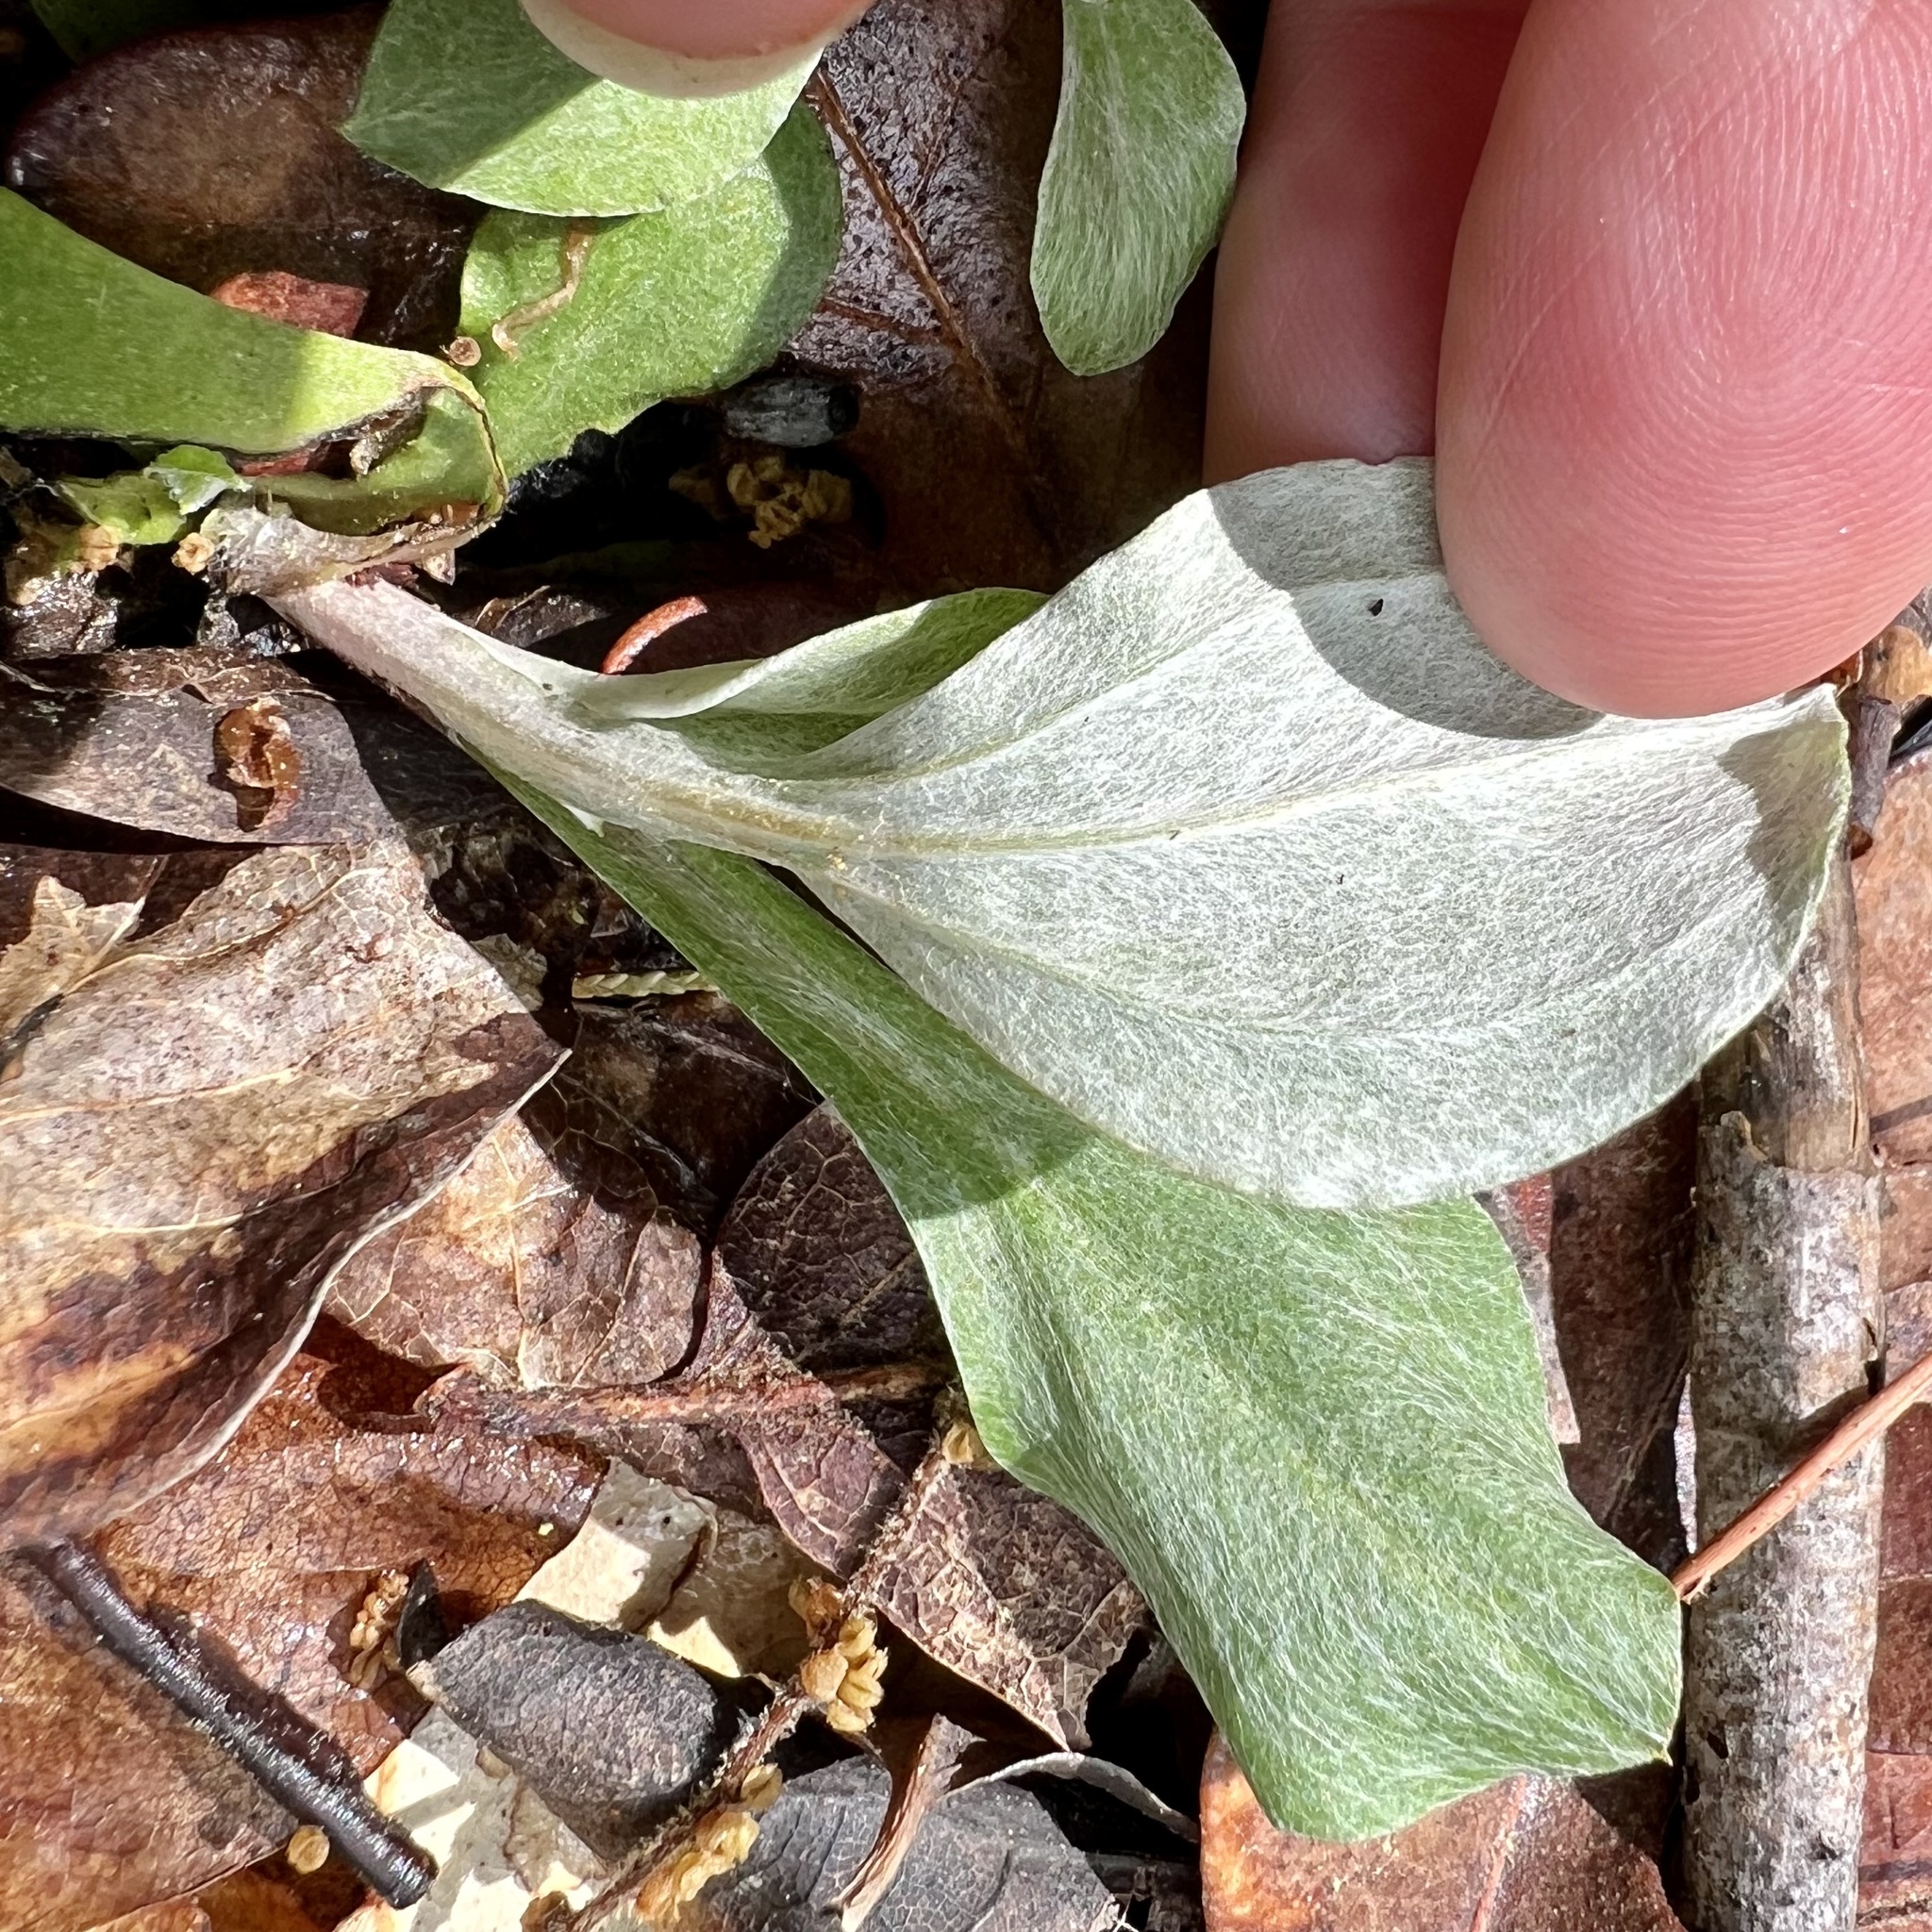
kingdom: Plantae
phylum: Tracheophyta
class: Magnoliopsida
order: Asterales
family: Asteraceae
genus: Antennaria
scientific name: Antennaria parlinii
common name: Parlin's pussytoes
